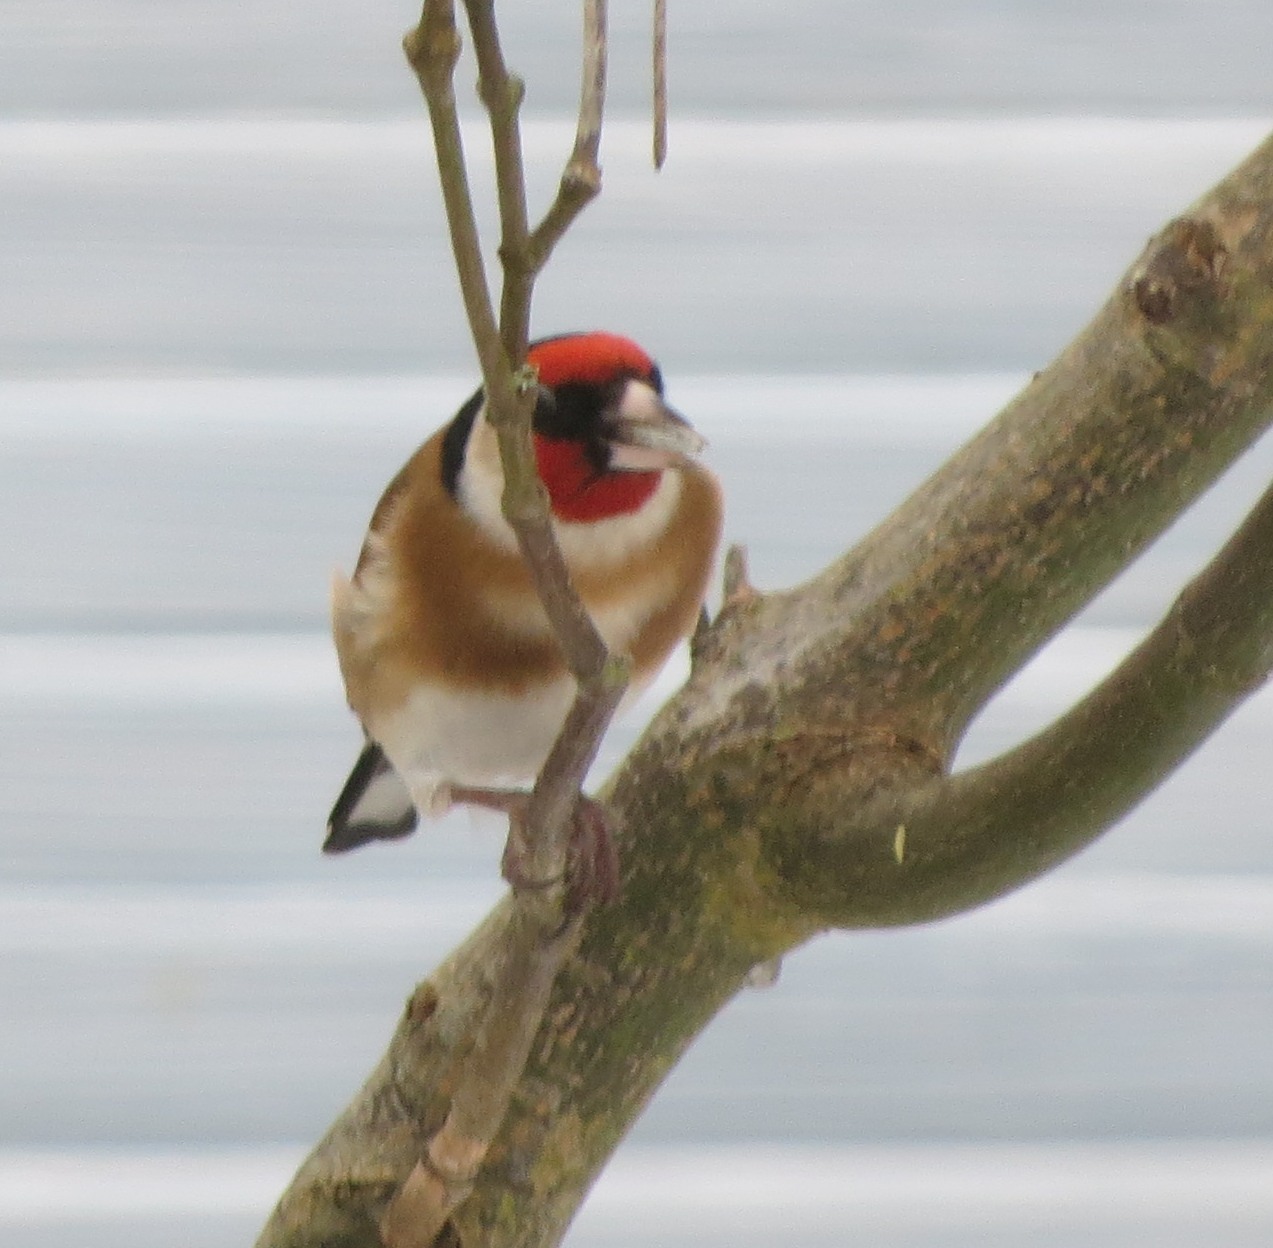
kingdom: Animalia
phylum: Chordata
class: Aves
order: Passeriformes
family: Fringillidae
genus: Carduelis
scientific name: Carduelis carduelis
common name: European goldfinch
